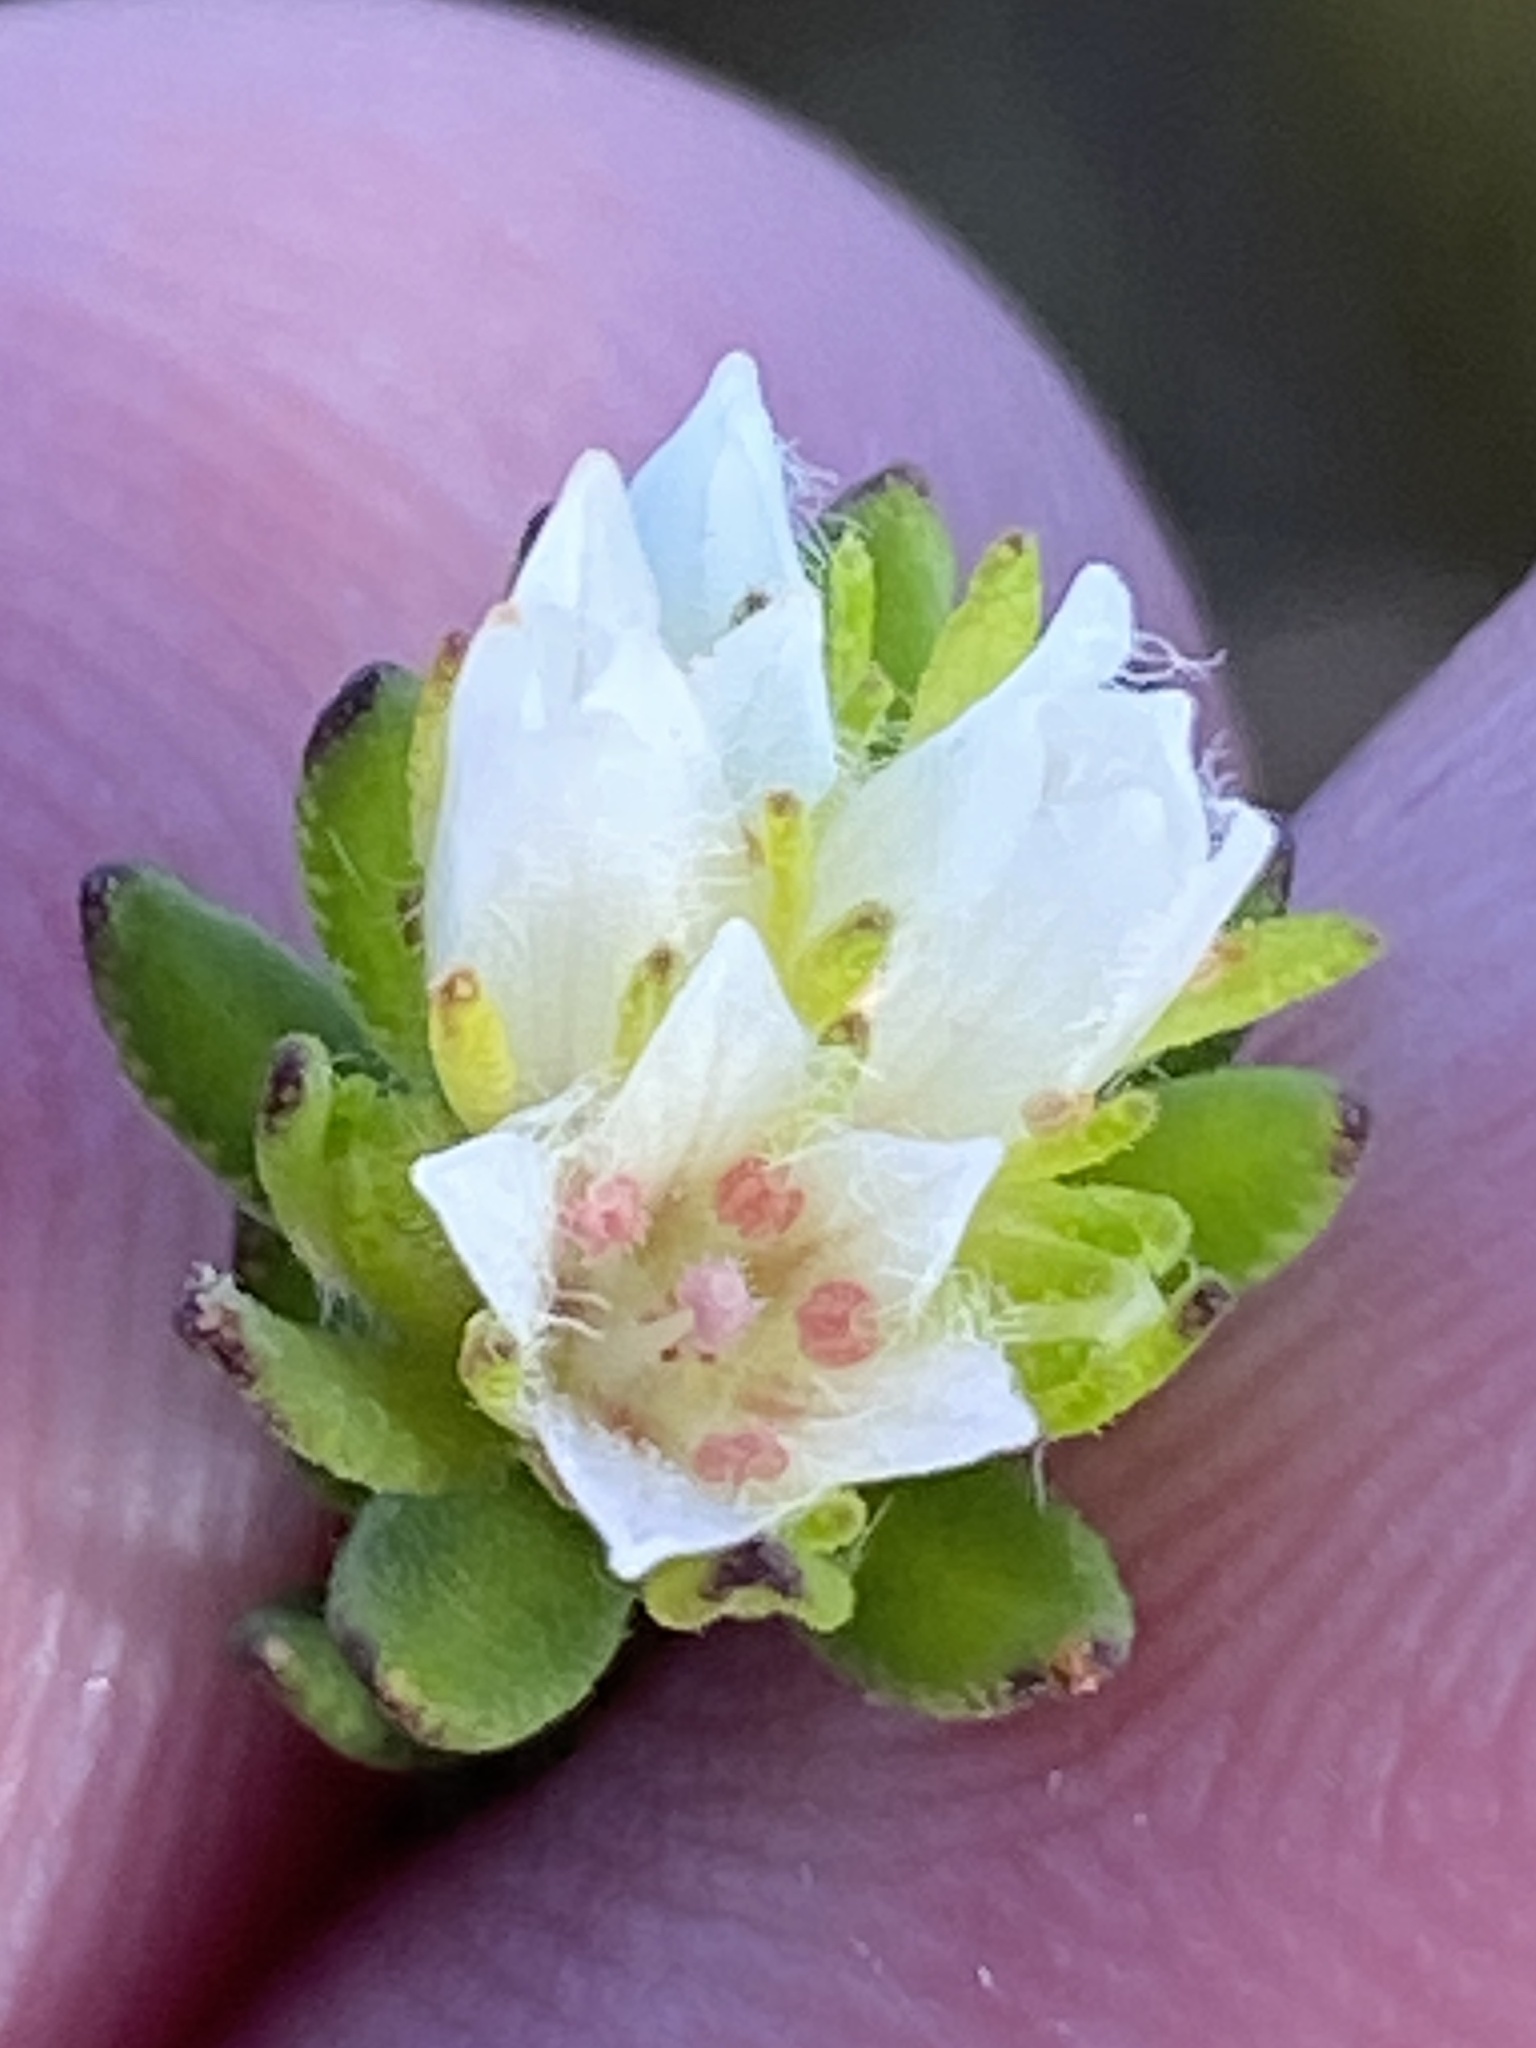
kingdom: Plantae
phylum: Tracheophyta
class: Magnoliopsida
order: Sapindales
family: Rutaceae
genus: Agathosma
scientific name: Agathosma rosmarinifolia
